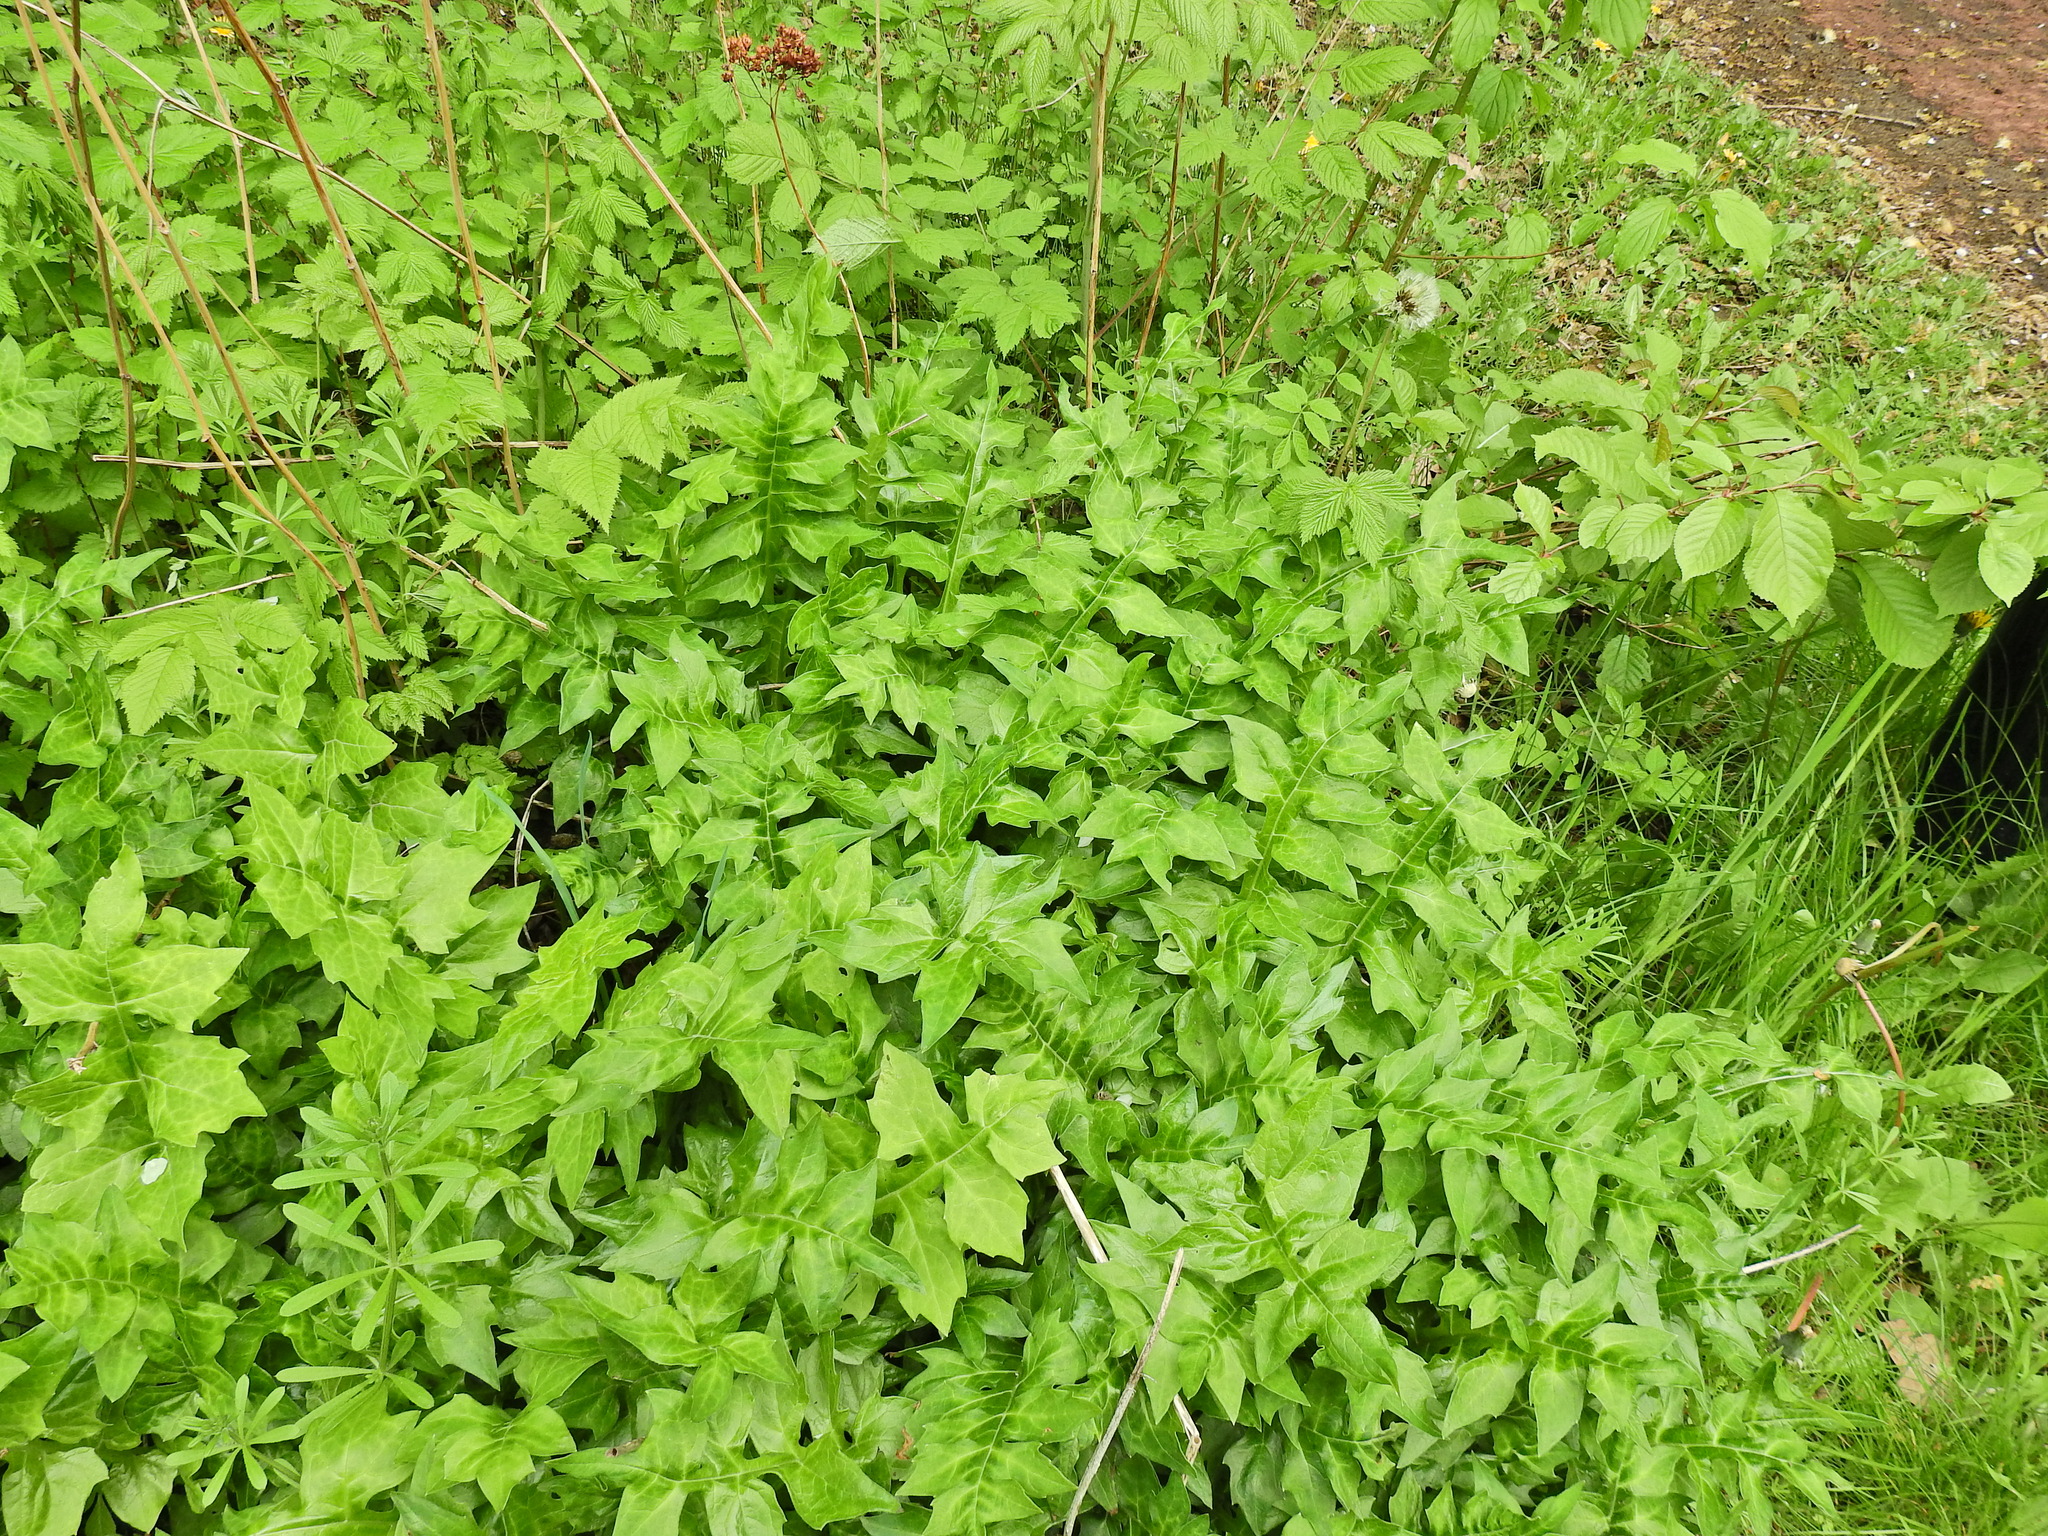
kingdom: Plantae
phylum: Tracheophyta
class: Magnoliopsida
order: Brassicales
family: Brassicaceae
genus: Sisymbrium
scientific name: Sisymbrium officinale
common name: Hedge mustard
